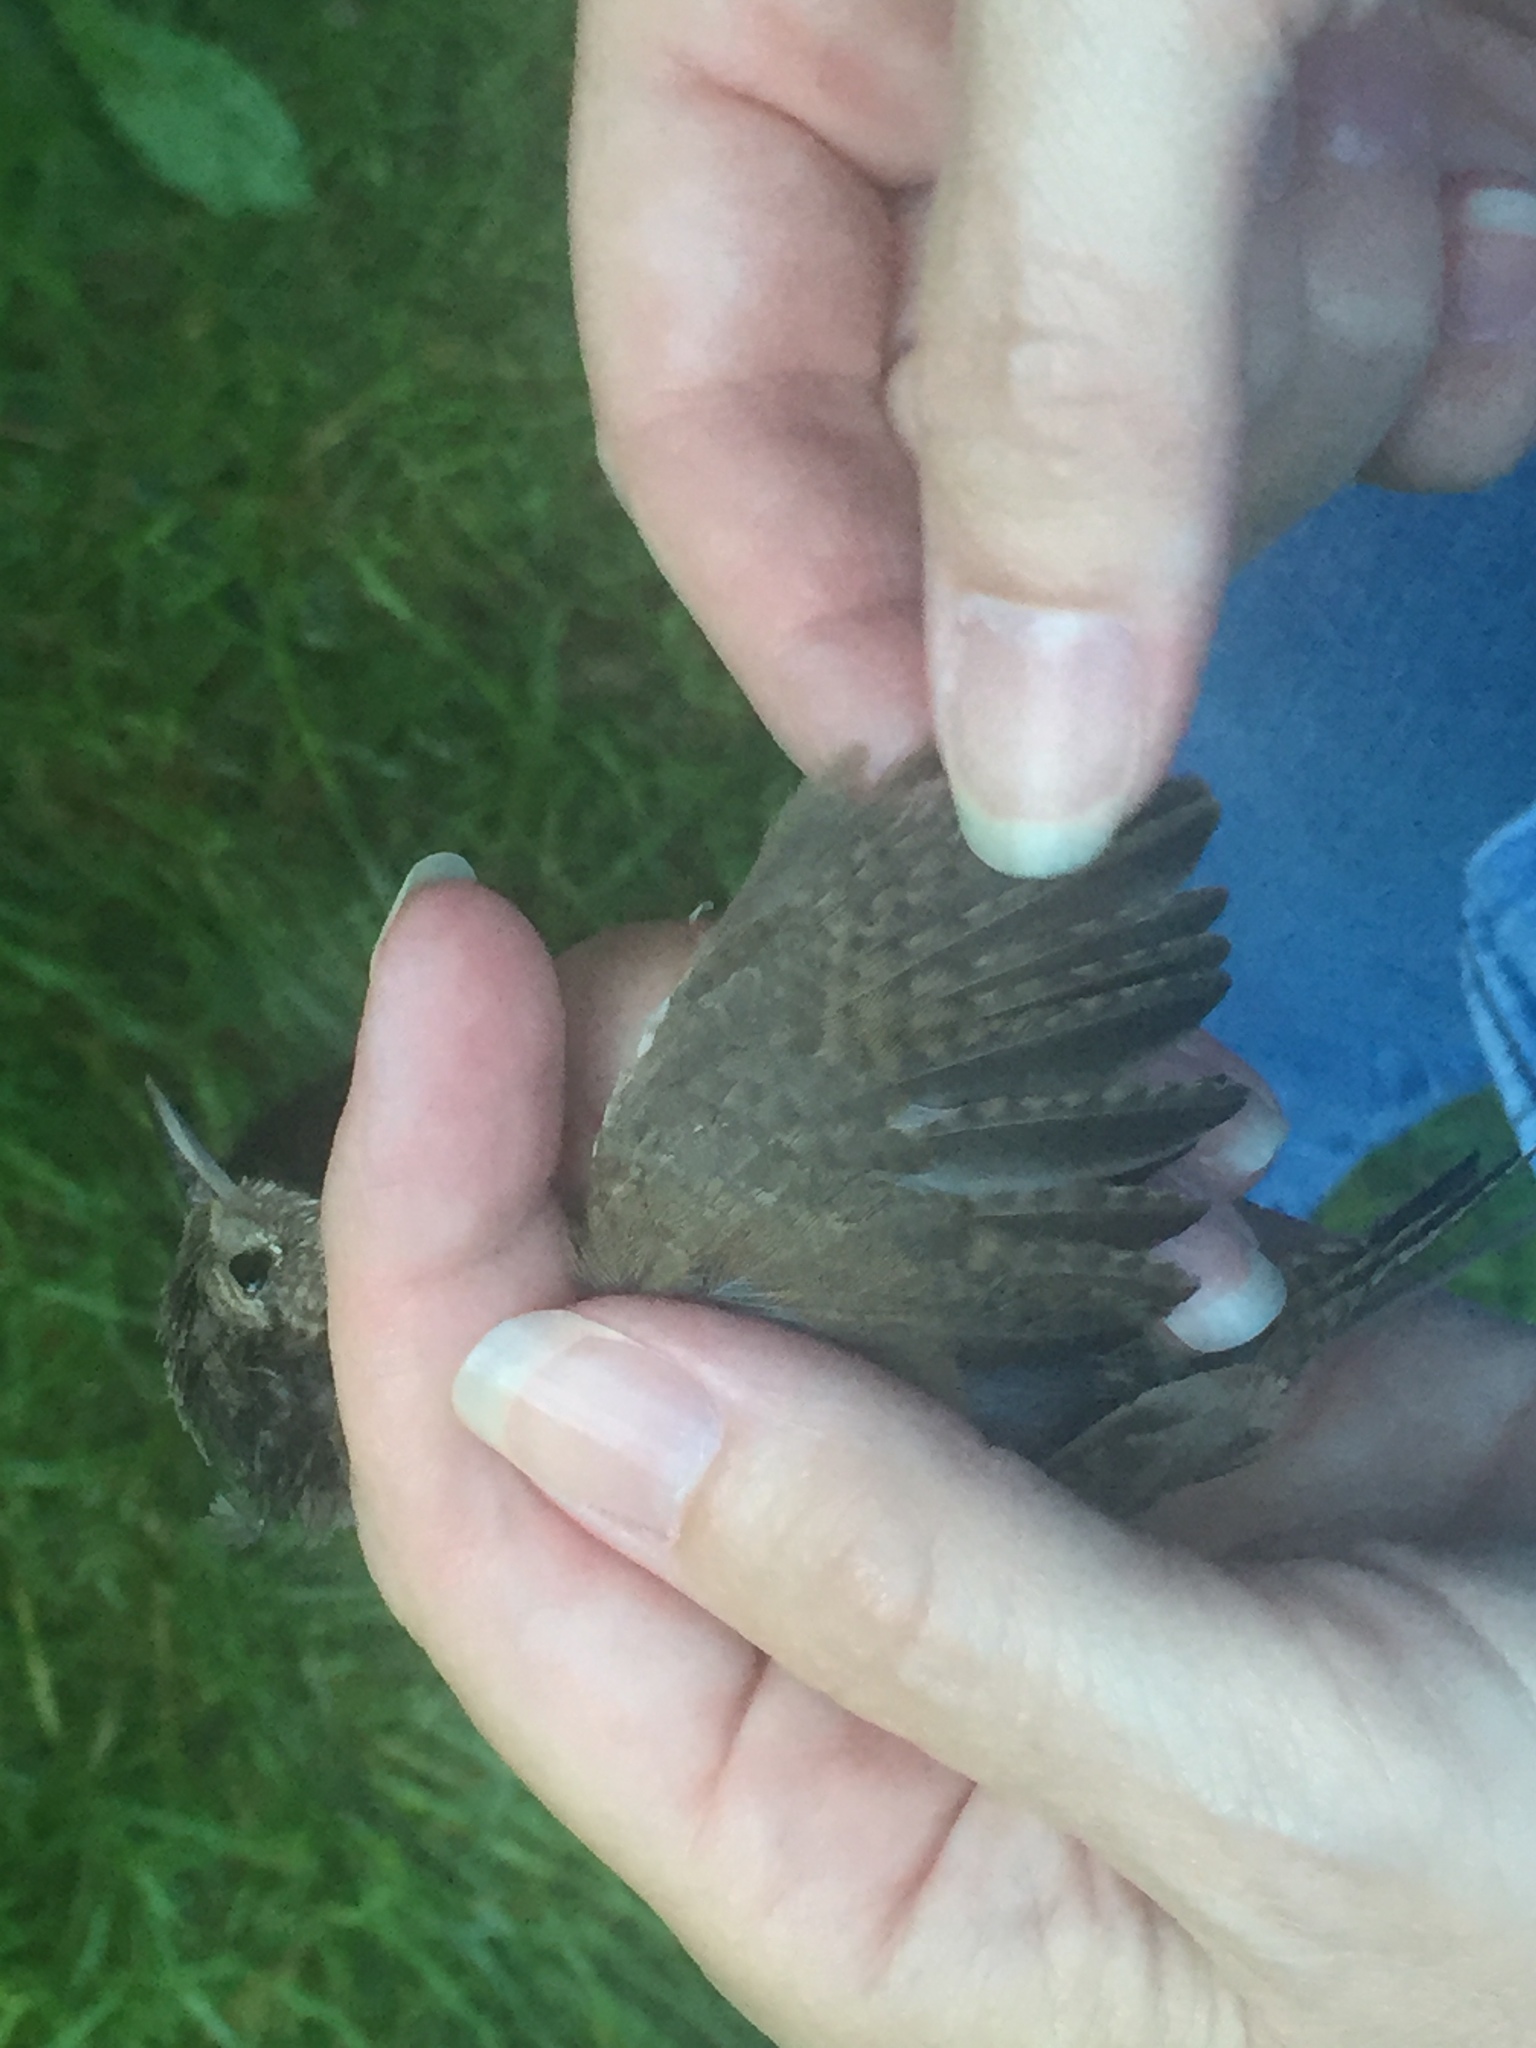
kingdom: Animalia
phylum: Chordata
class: Aves
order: Passeriformes
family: Troglodytidae
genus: Troglodytes
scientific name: Troglodytes aedon
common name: House wren
